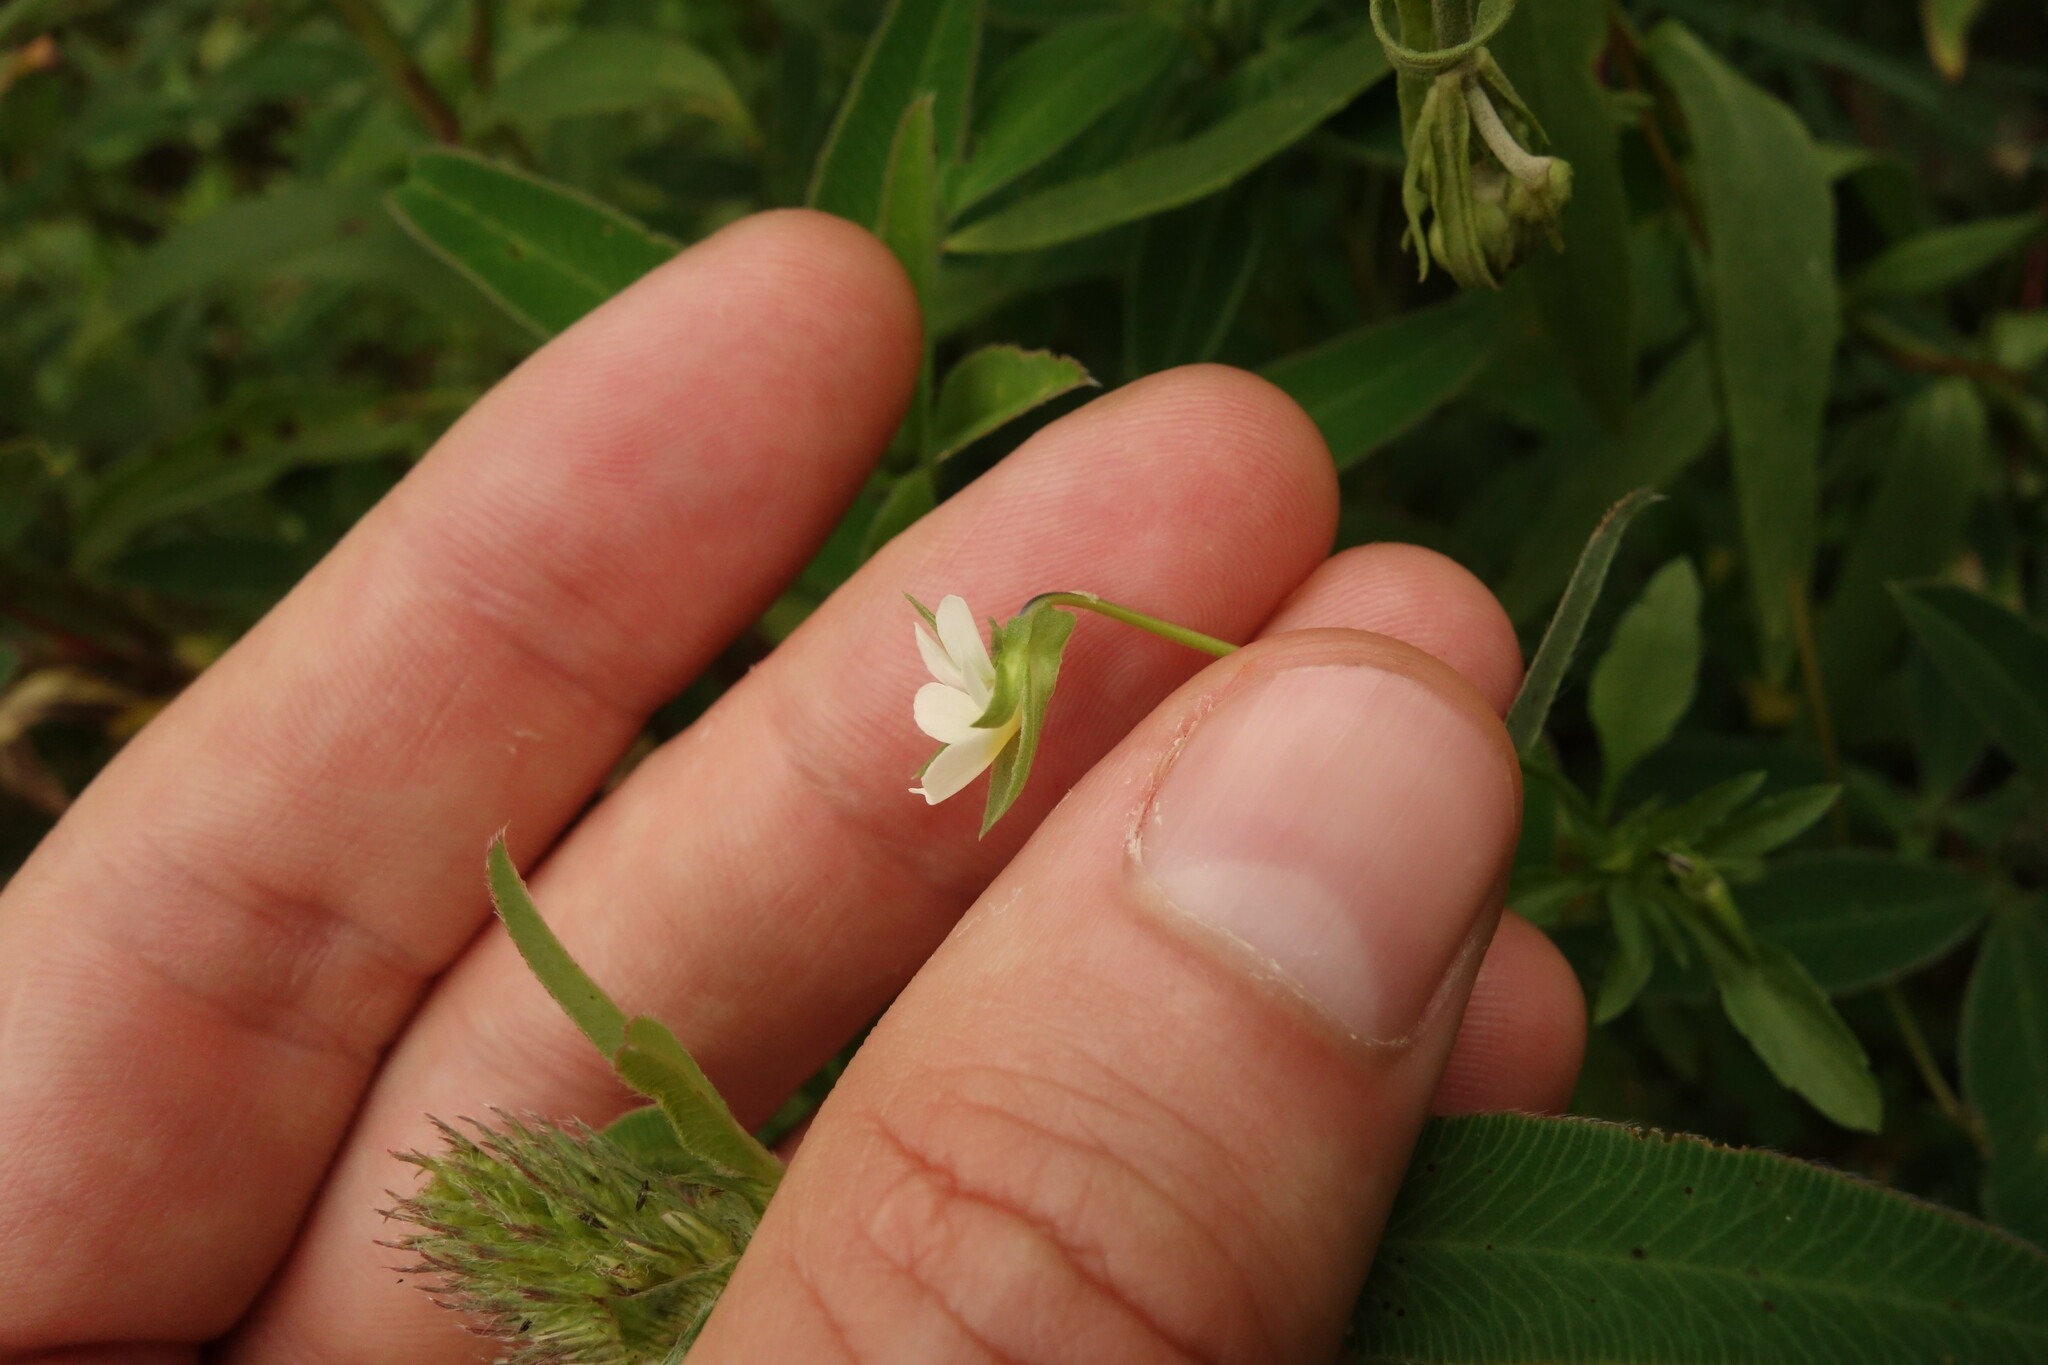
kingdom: Plantae
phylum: Tracheophyta
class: Magnoliopsida
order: Malpighiales
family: Violaceae
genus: Viola
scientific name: Viola arvensis
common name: Field pansy
